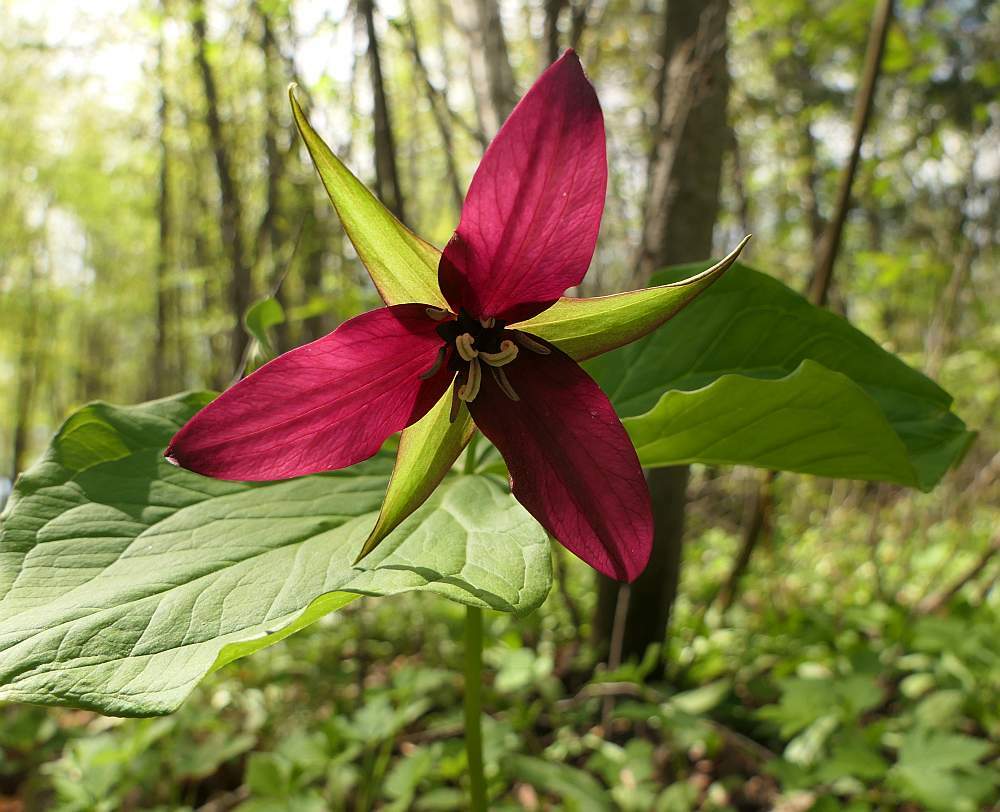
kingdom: Plantae
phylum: Tracheophyta
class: Liliopsida
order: Liliales
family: Melanthiaceae
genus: Trillium
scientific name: Trillium erectum
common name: Purple trillium
